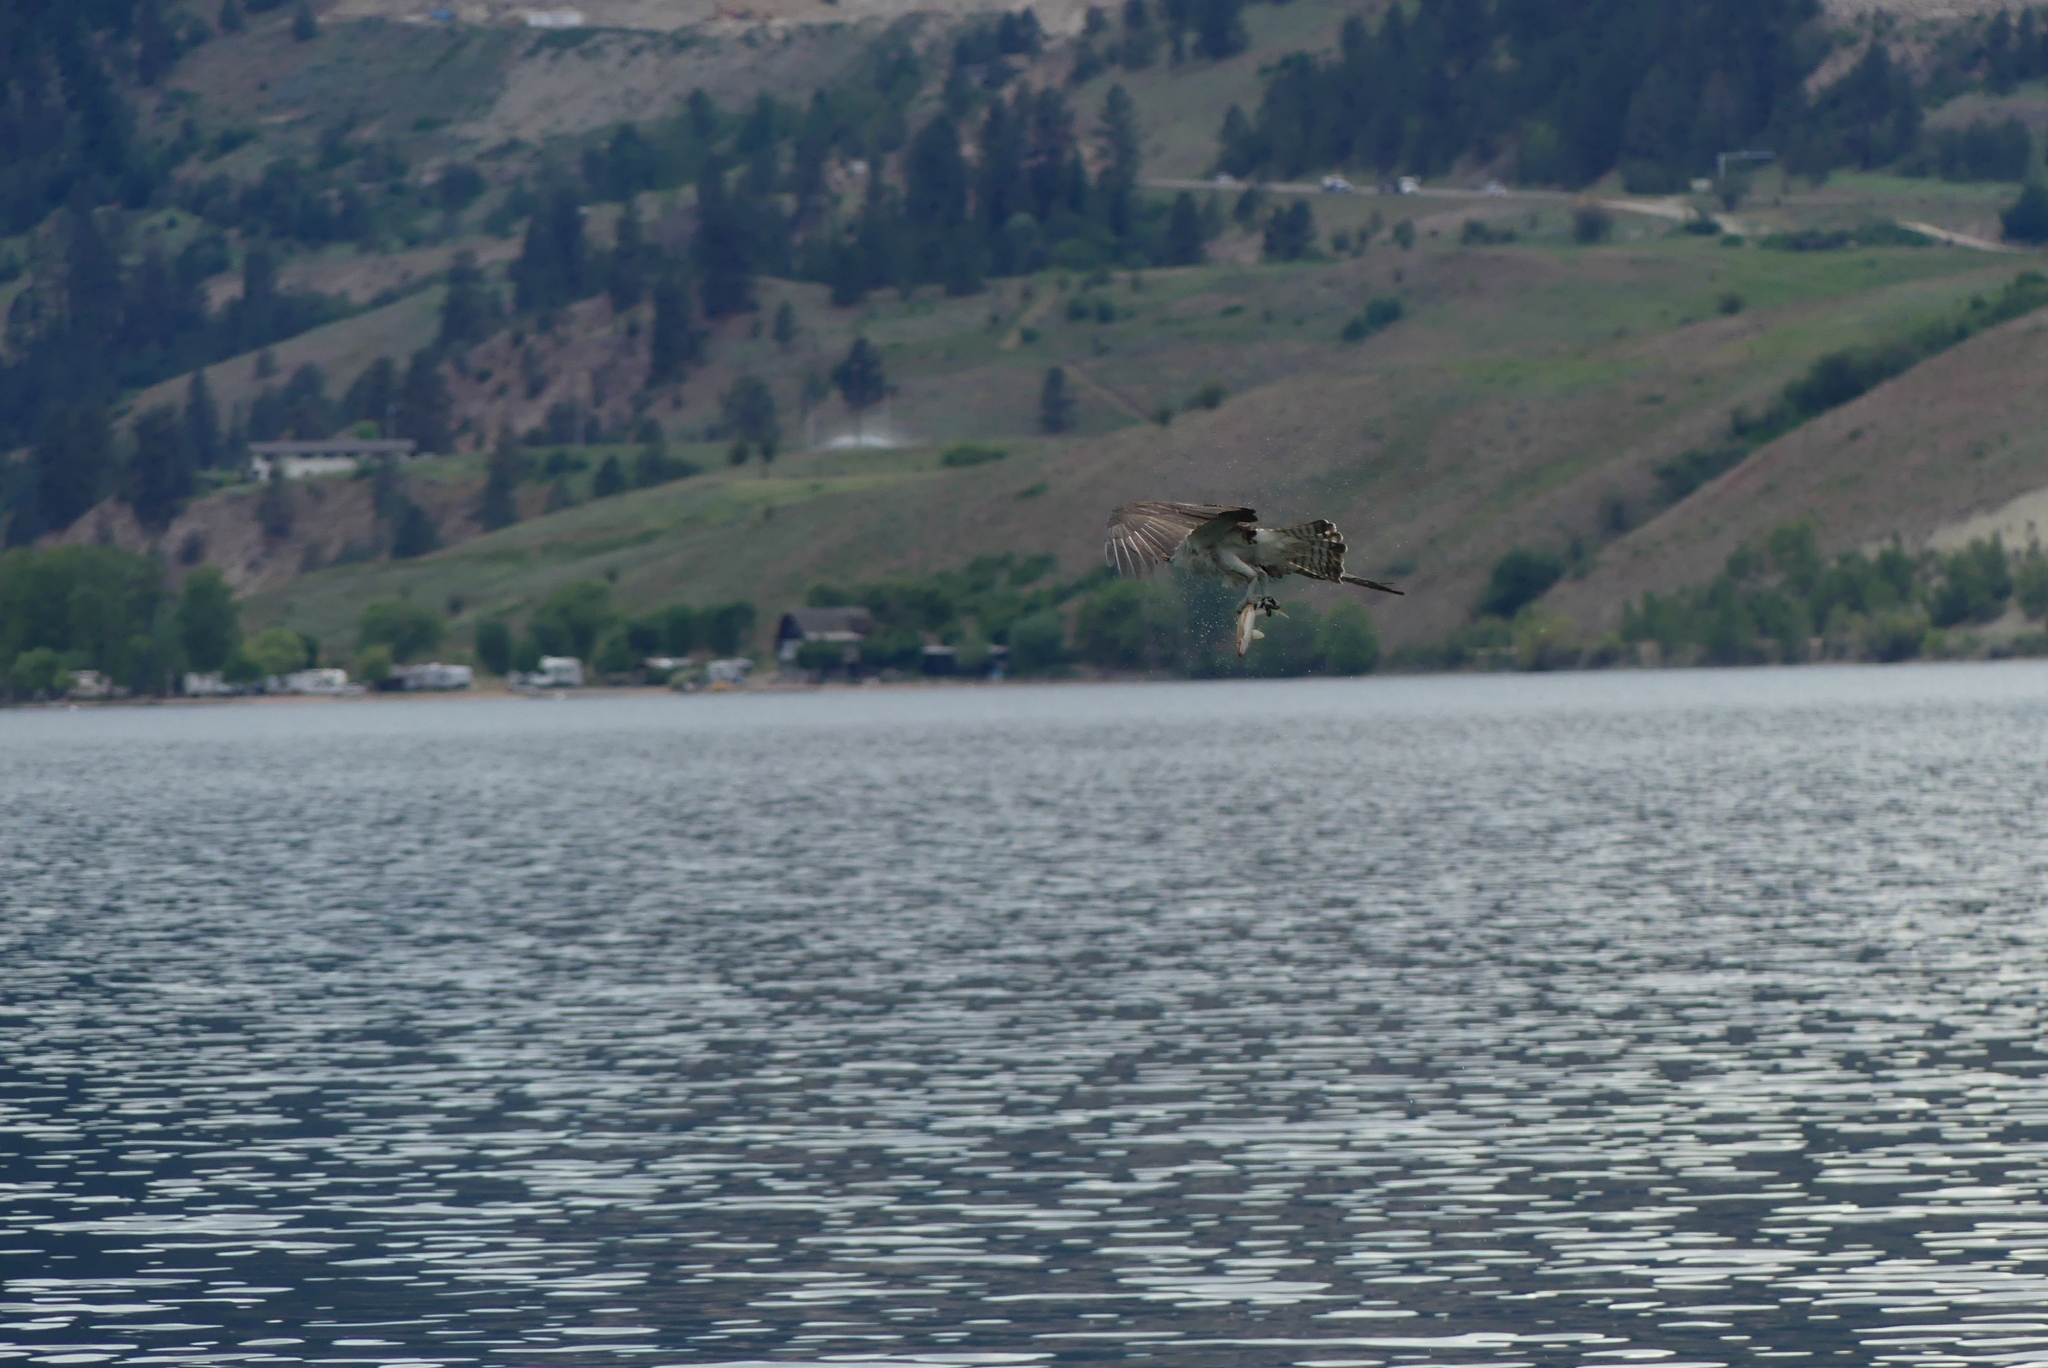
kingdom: Animalia
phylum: Chordata
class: Aves
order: Accipitriformes
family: Pandionidae
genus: Pandion
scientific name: Pandion haliaetus
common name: Osprey
